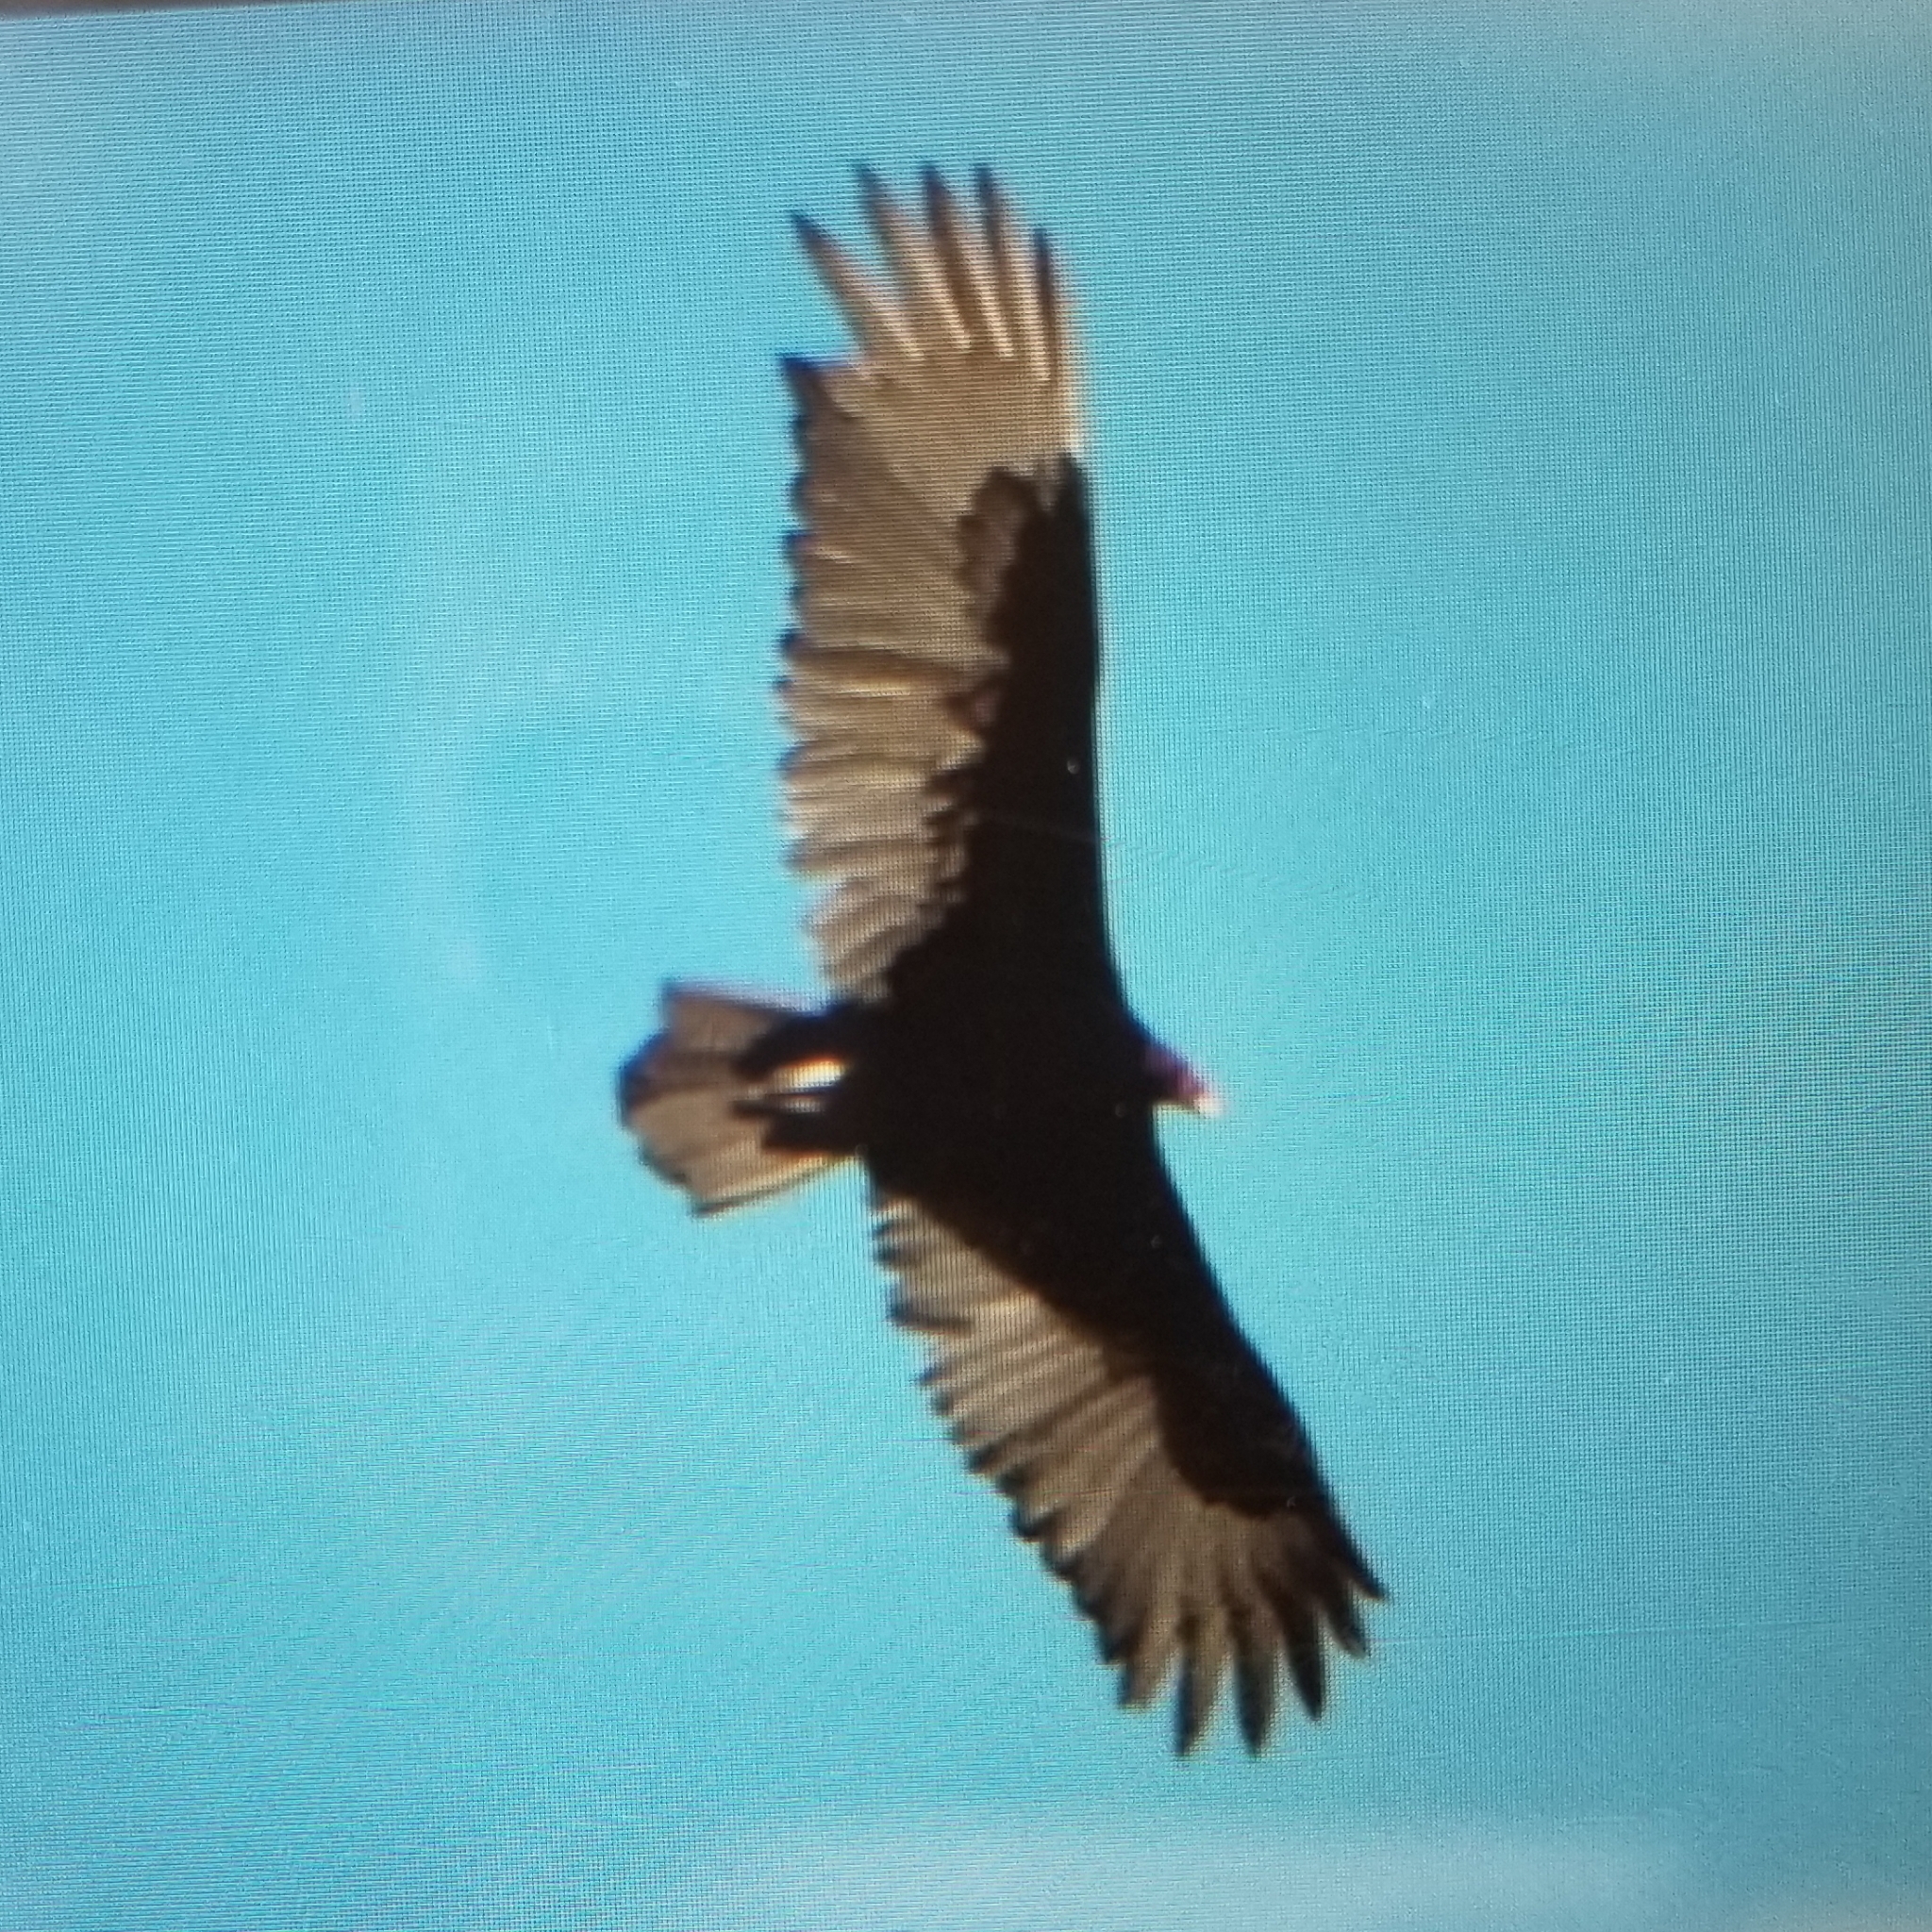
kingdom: Animalia
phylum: Chordata
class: Aves
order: Accipitriformes
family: Cathartidae
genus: Cathartes
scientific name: Cathartes aura
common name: Turkey vulture
